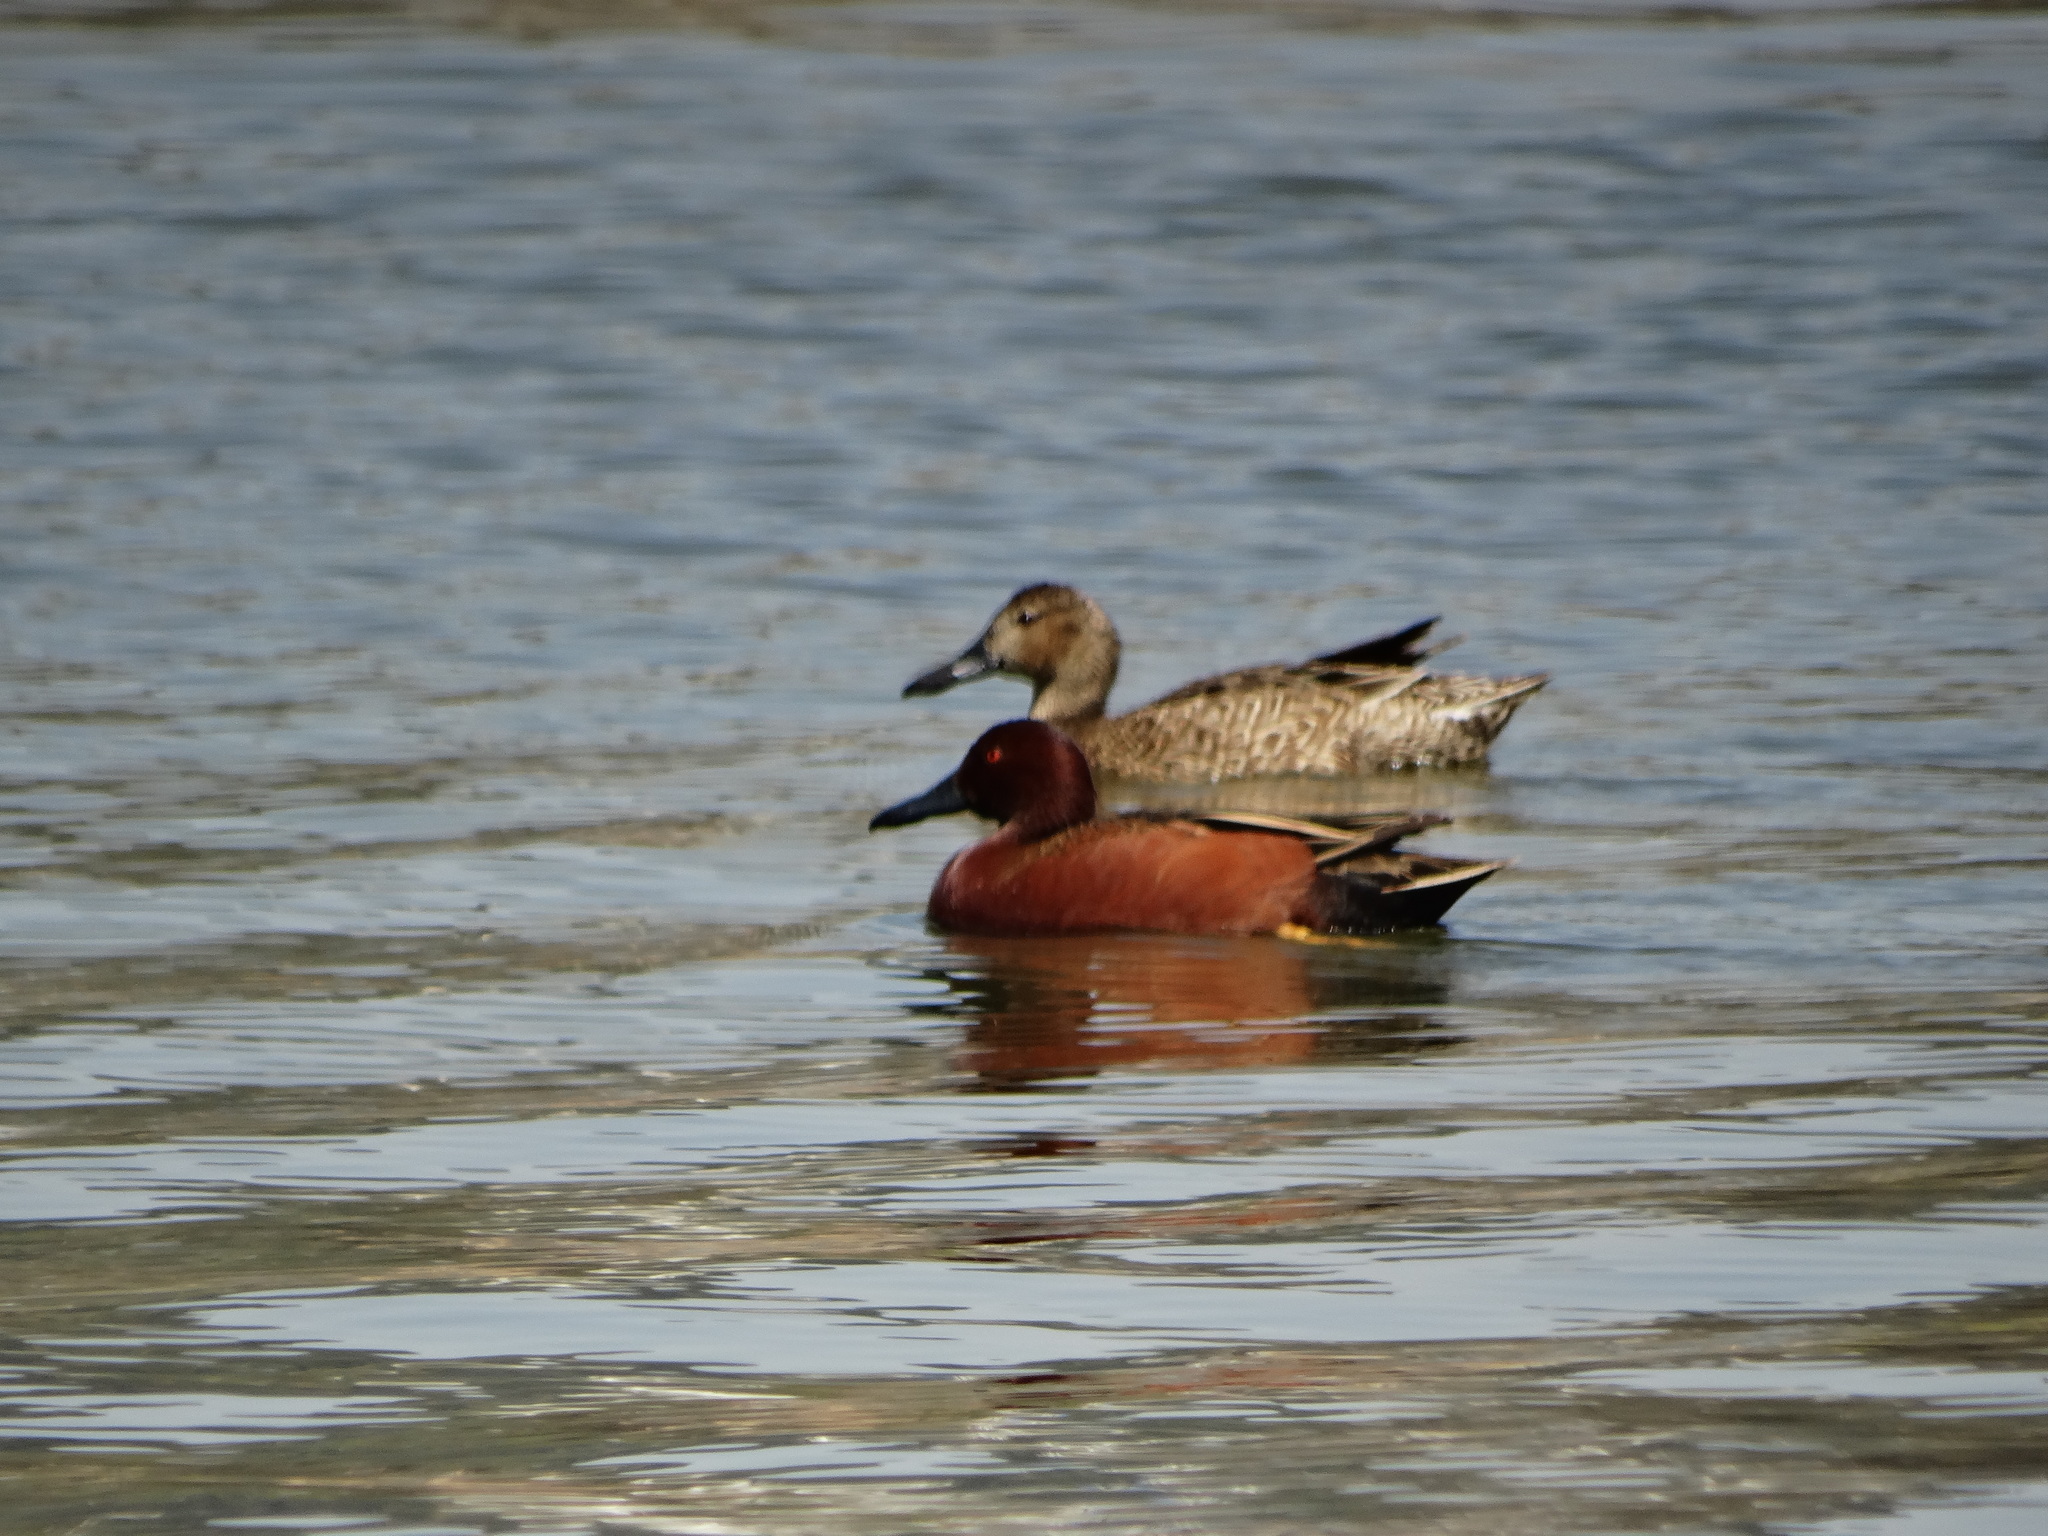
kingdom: Animalia
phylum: Chordata
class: Aves
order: Anseriformes
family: Anatidae
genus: Spatula
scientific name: Spatula cyanoptera
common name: Cinnamon teal
